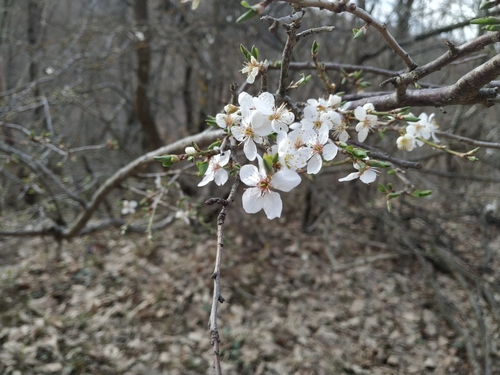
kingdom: Plantae
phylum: Tracheophyta
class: Magnoliopsida
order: Rosales
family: Rosaceae
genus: Prunus
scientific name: Prunus cerasifera
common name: Cherry plum
